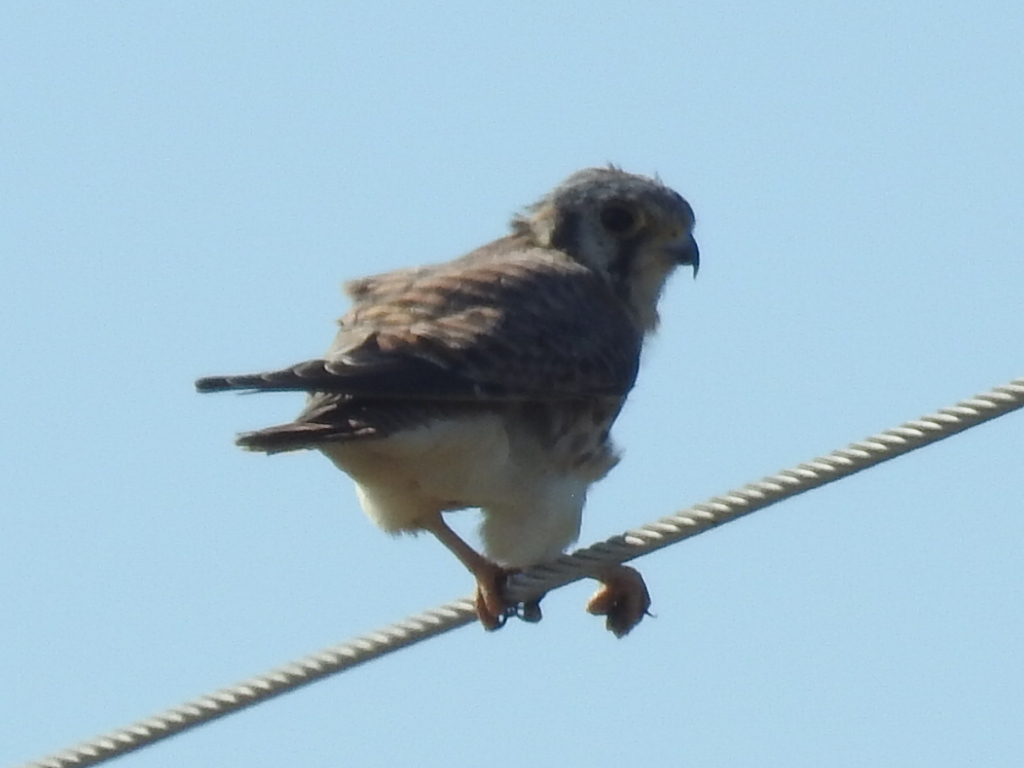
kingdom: Animalia
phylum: Chordata
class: Aves
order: Falconiformes
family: Falconidae
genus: Falco
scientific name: Falco sparverius
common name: American kestrel
